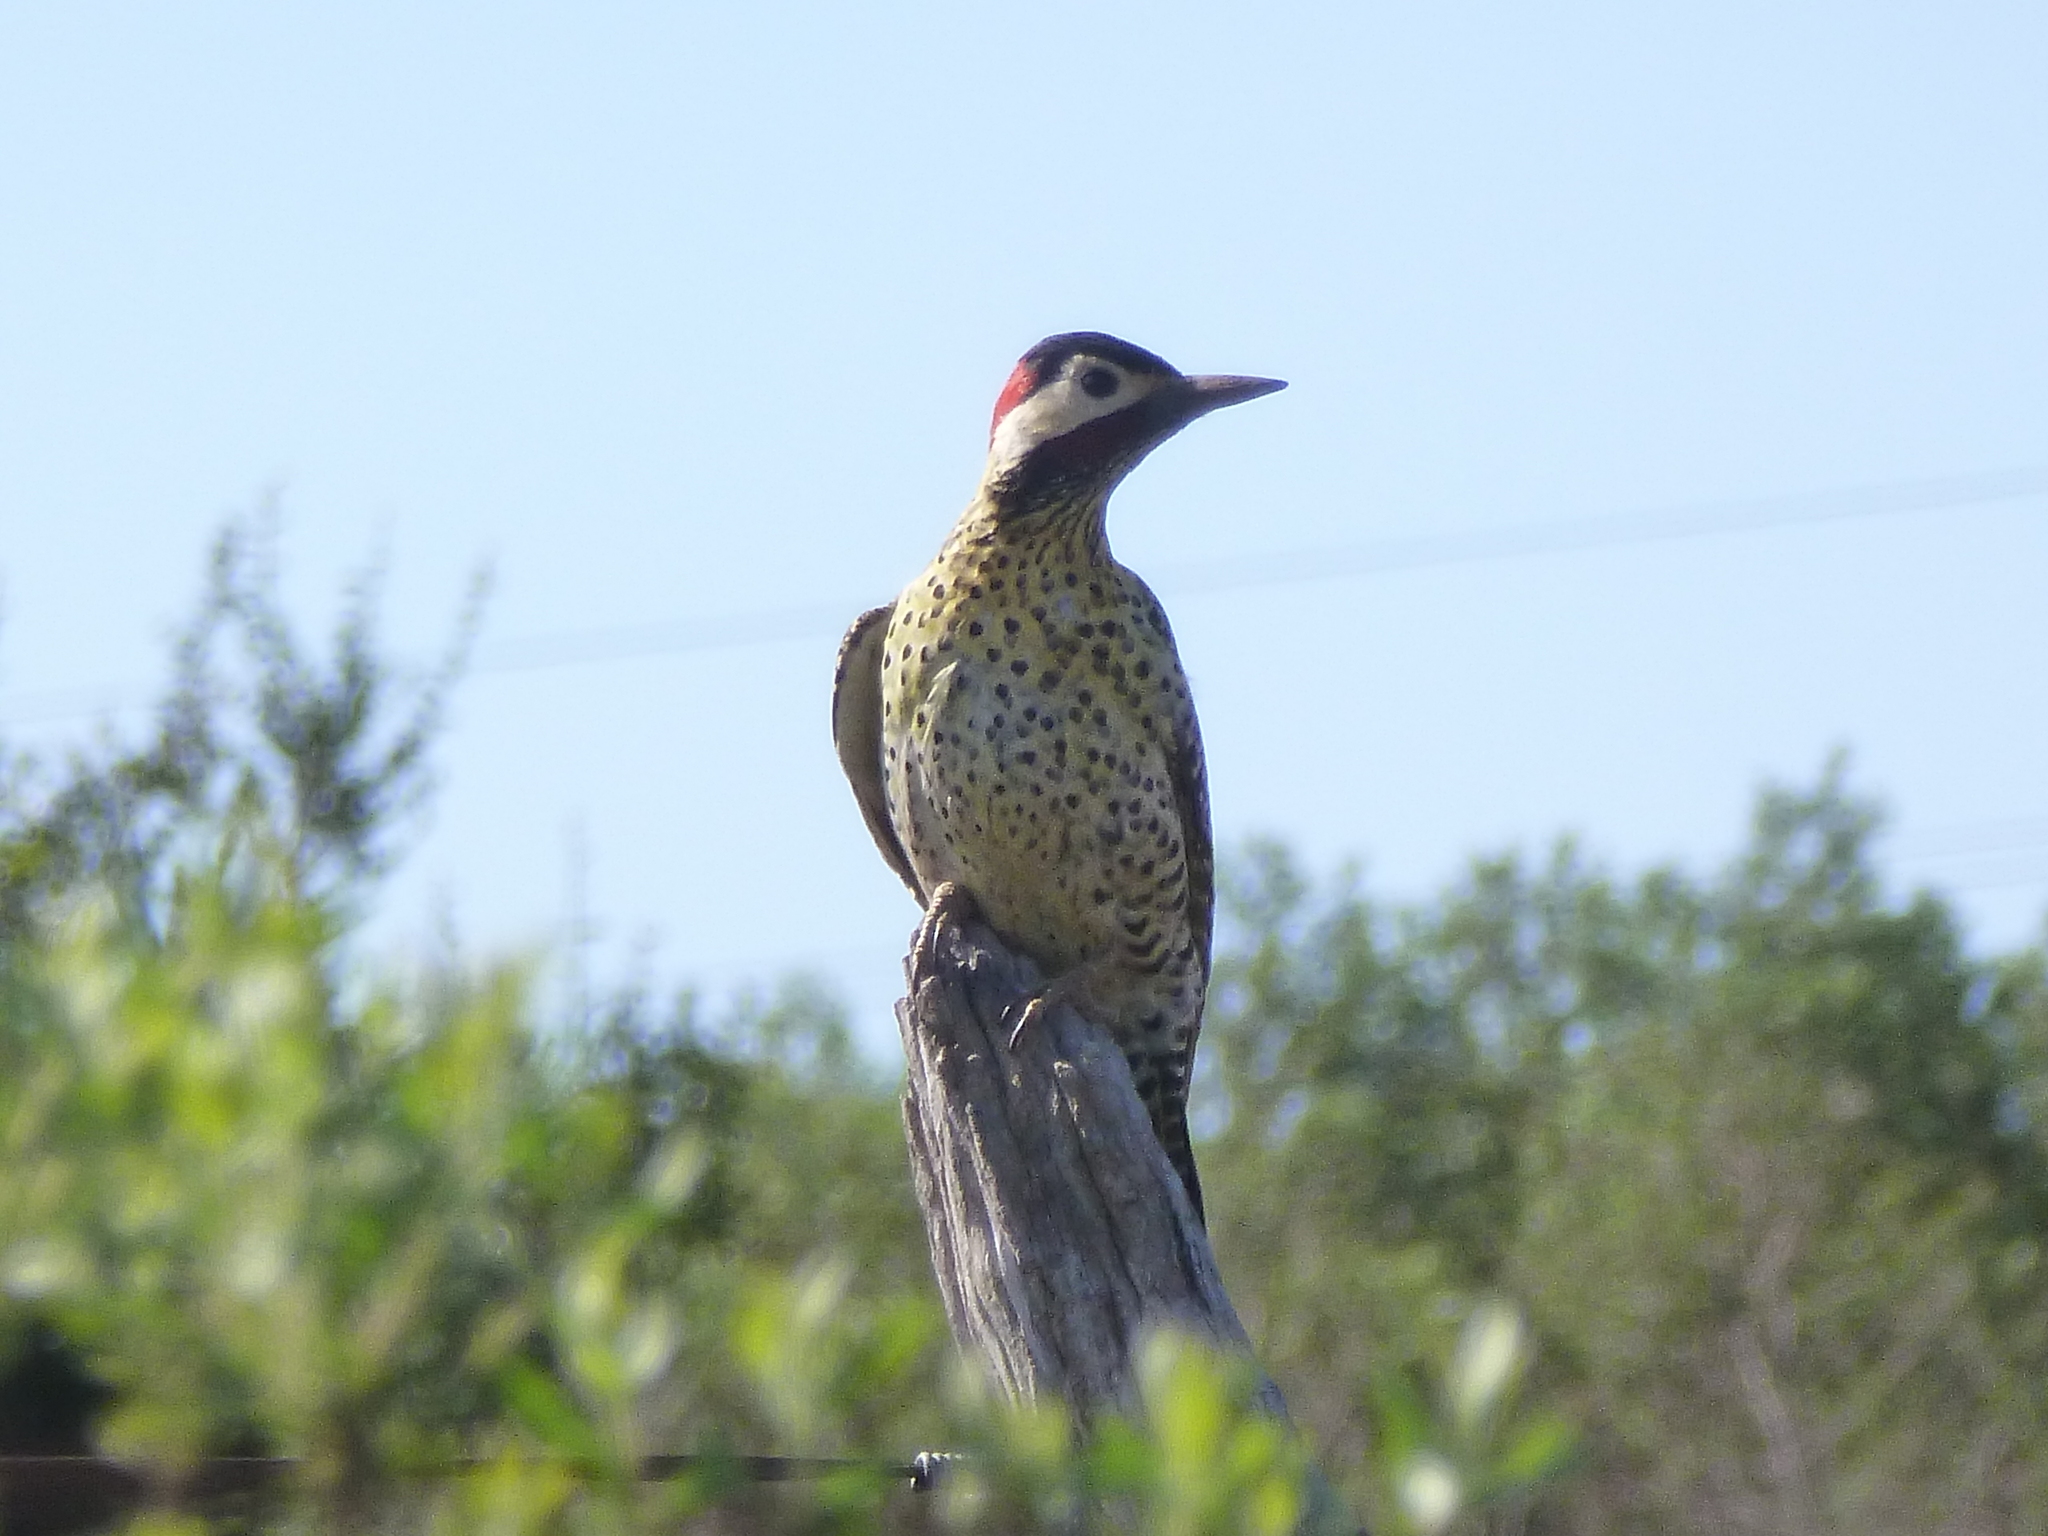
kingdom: Animalia
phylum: Chordata
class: Aves
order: Piciformes
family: Picidae
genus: Colaptes
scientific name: Colaptes melanochloros
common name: Green-barred woodpecker
